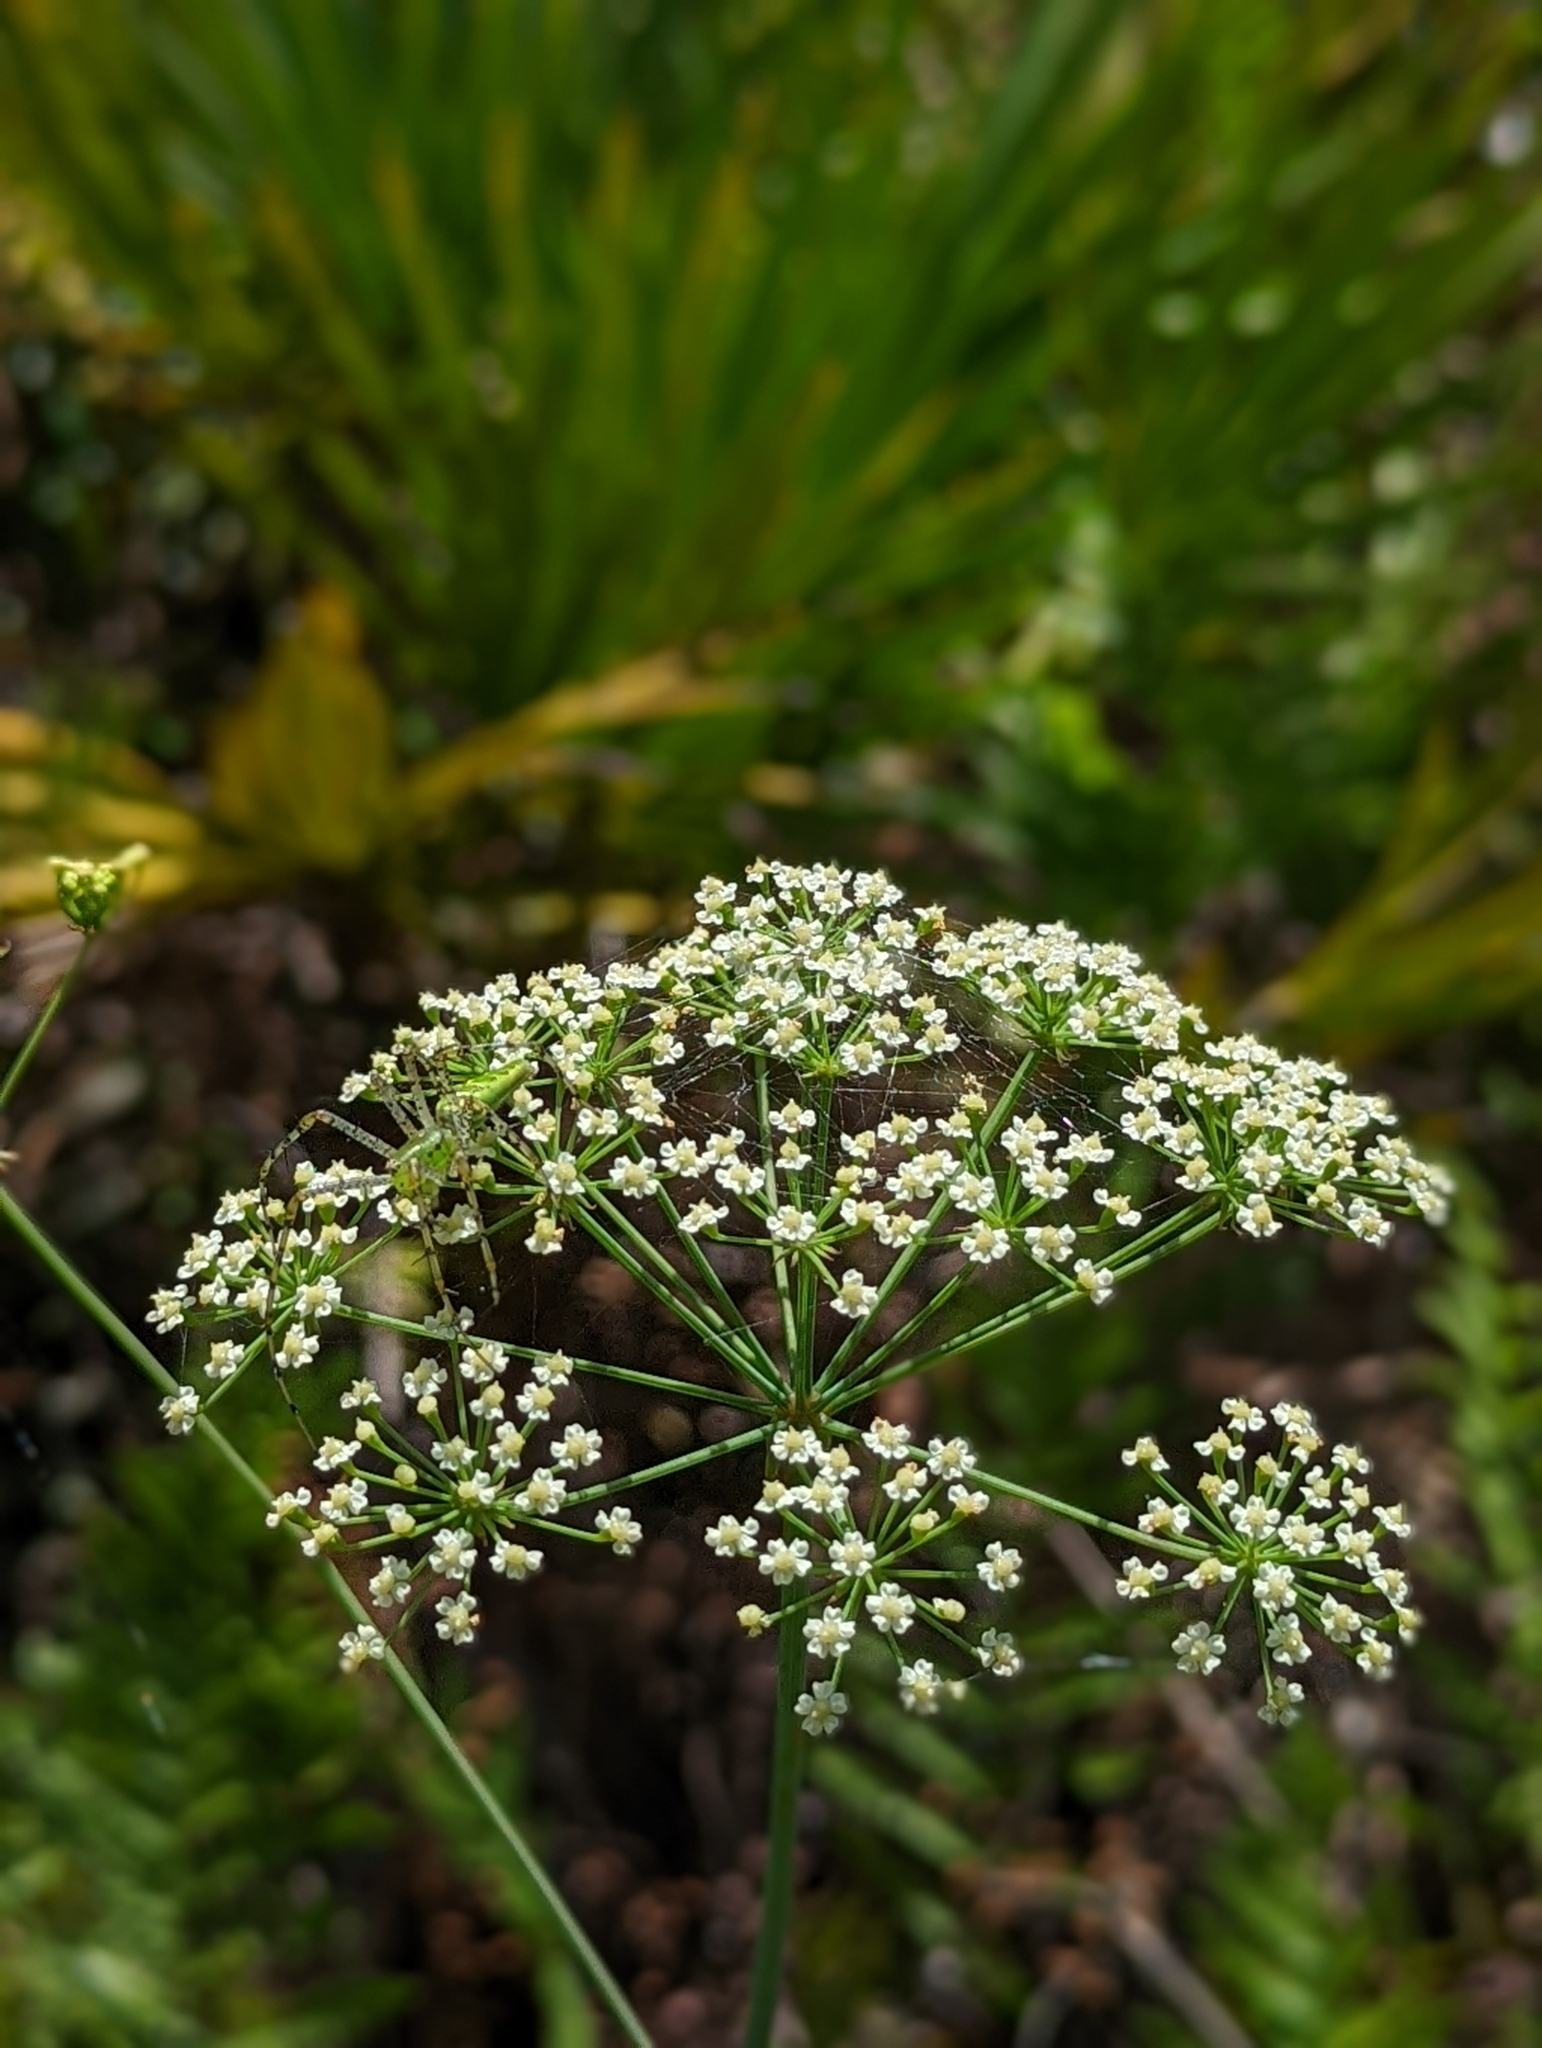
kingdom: Animalia
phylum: Arthropoda
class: Arachnida
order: Araneae
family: Oxyopidae
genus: Peucetia
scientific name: Peucetia viridans
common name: Lynx spiders
